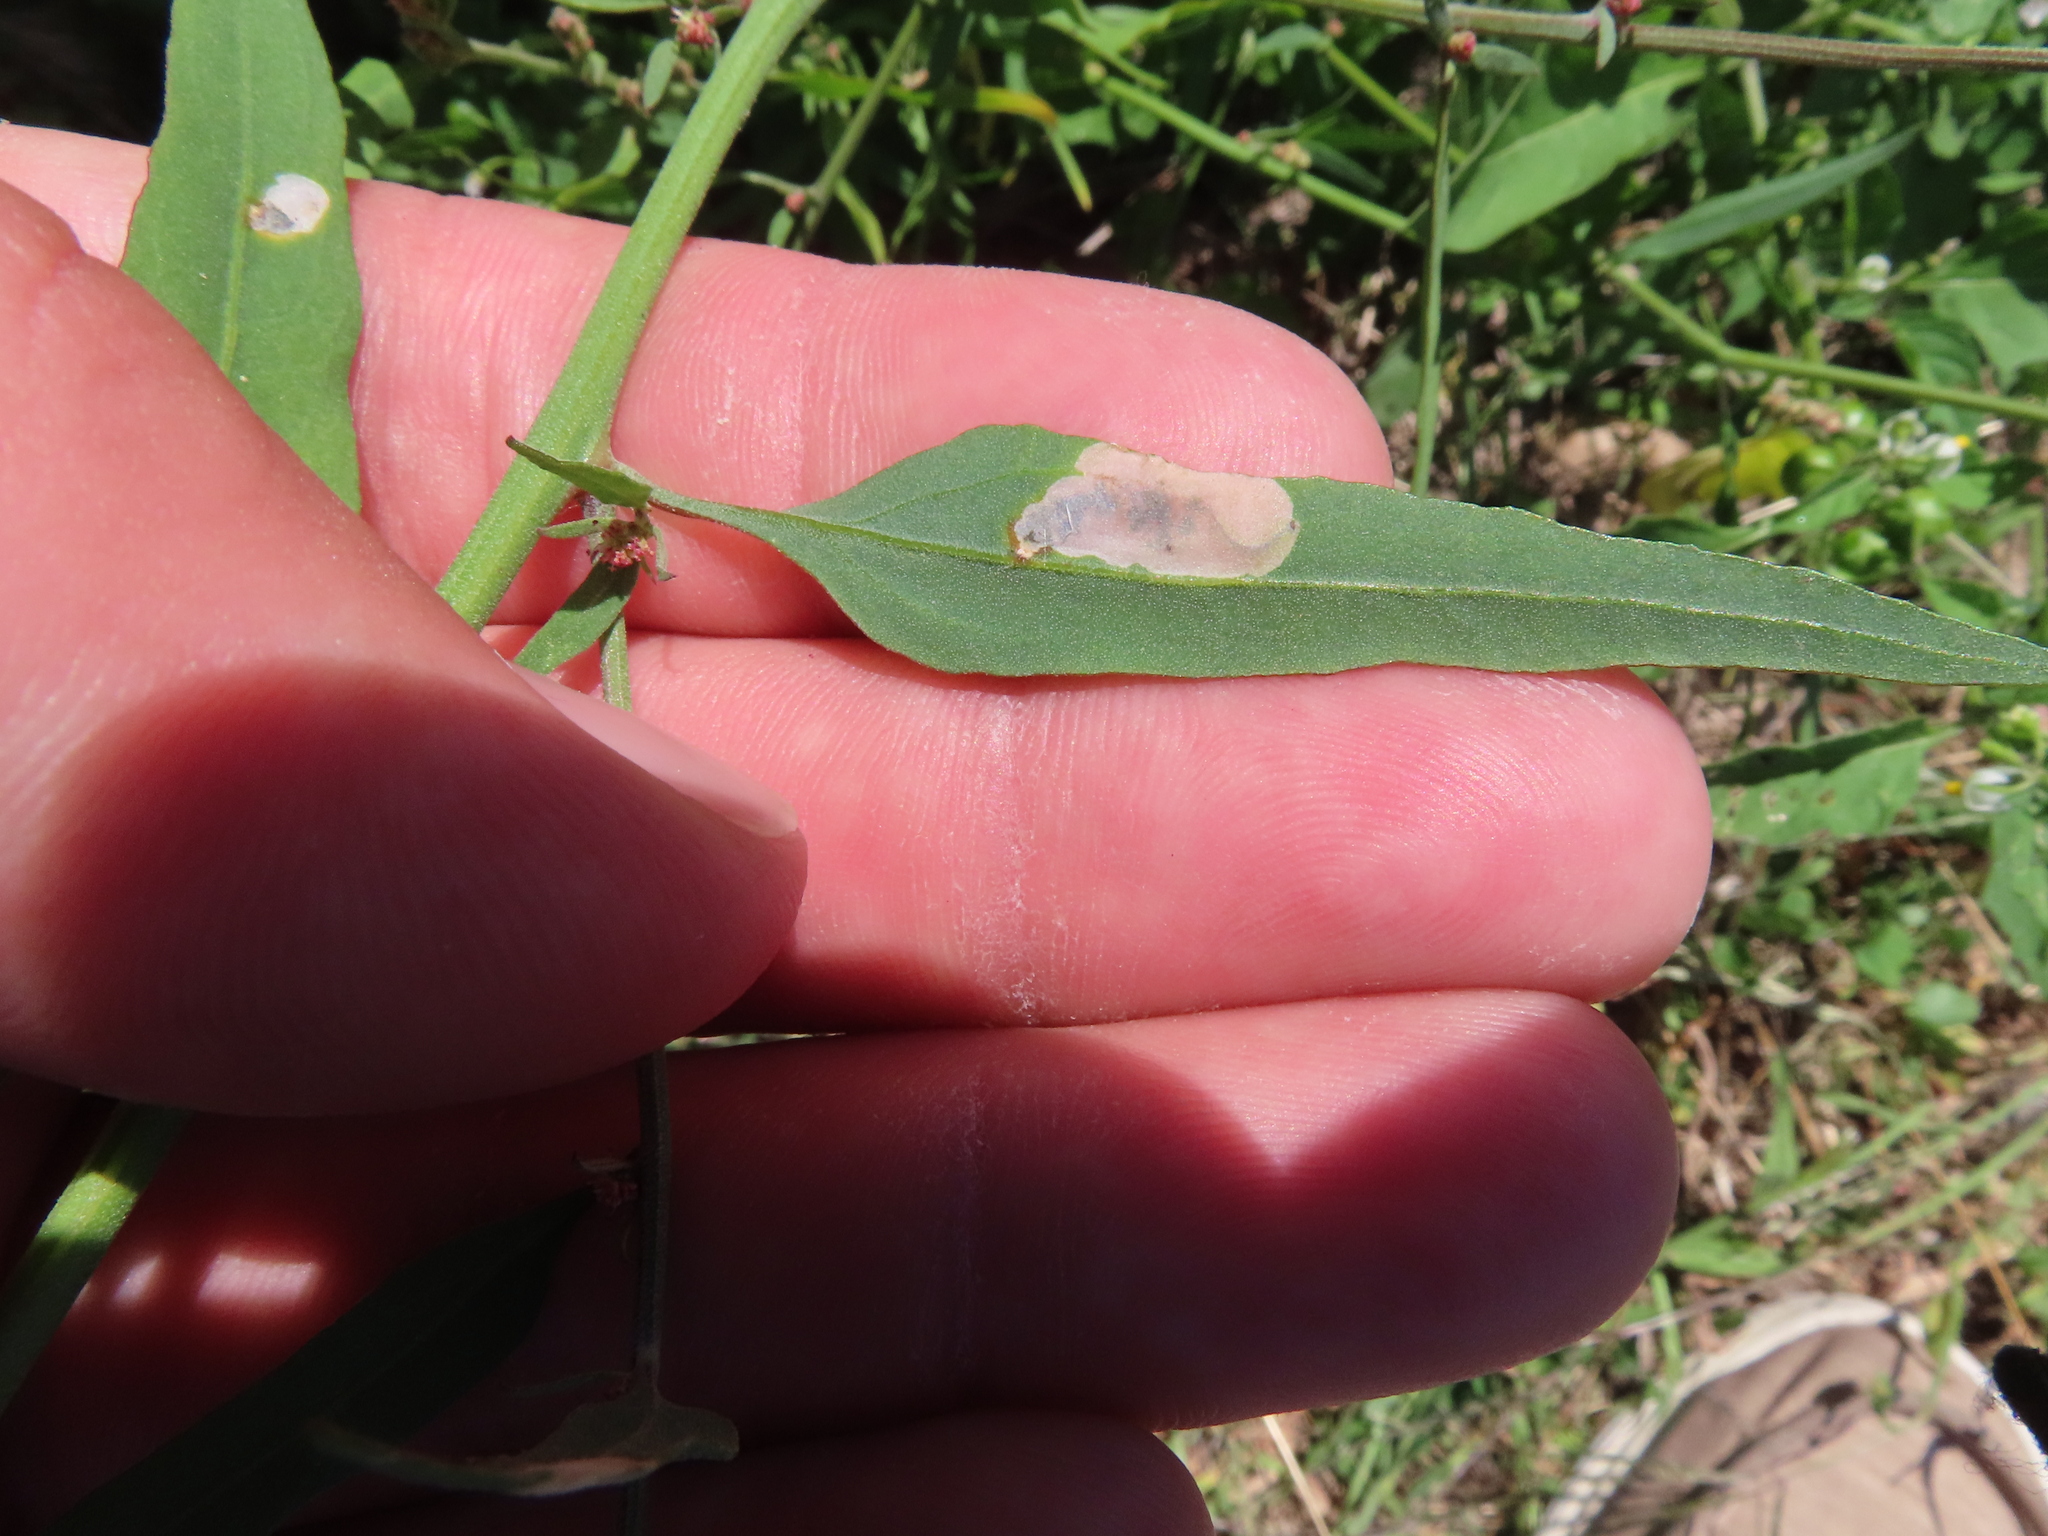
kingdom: Animalia
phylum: Arthropoda
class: Insecta
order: Lepidoptera
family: Gelechiidae
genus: Chrysoesthia
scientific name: Chrysoesthia sexguttella
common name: Moth
